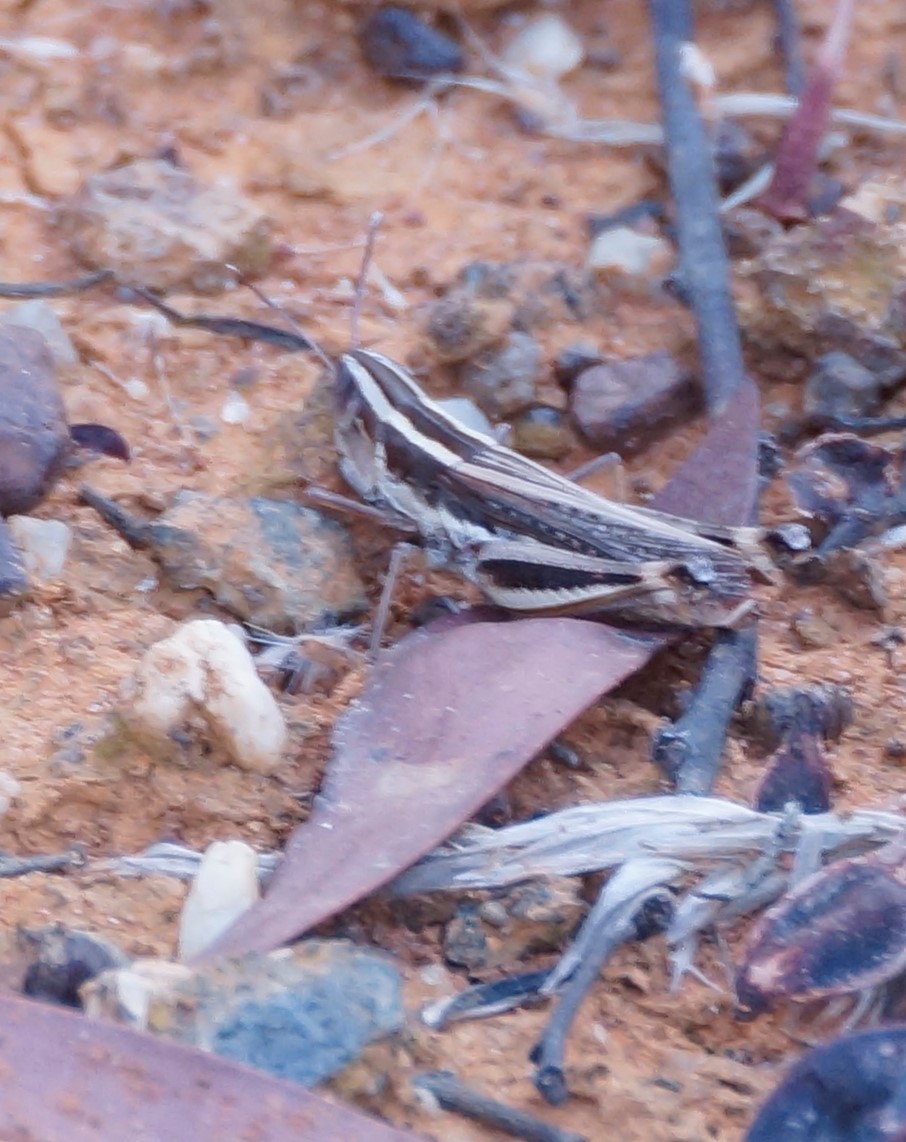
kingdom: Animalia
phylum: Arthropoda
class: Insecta
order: Orthoptera
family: Acrididae
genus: Macrotona
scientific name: Macrotona securiformis
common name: Inland macrotona
